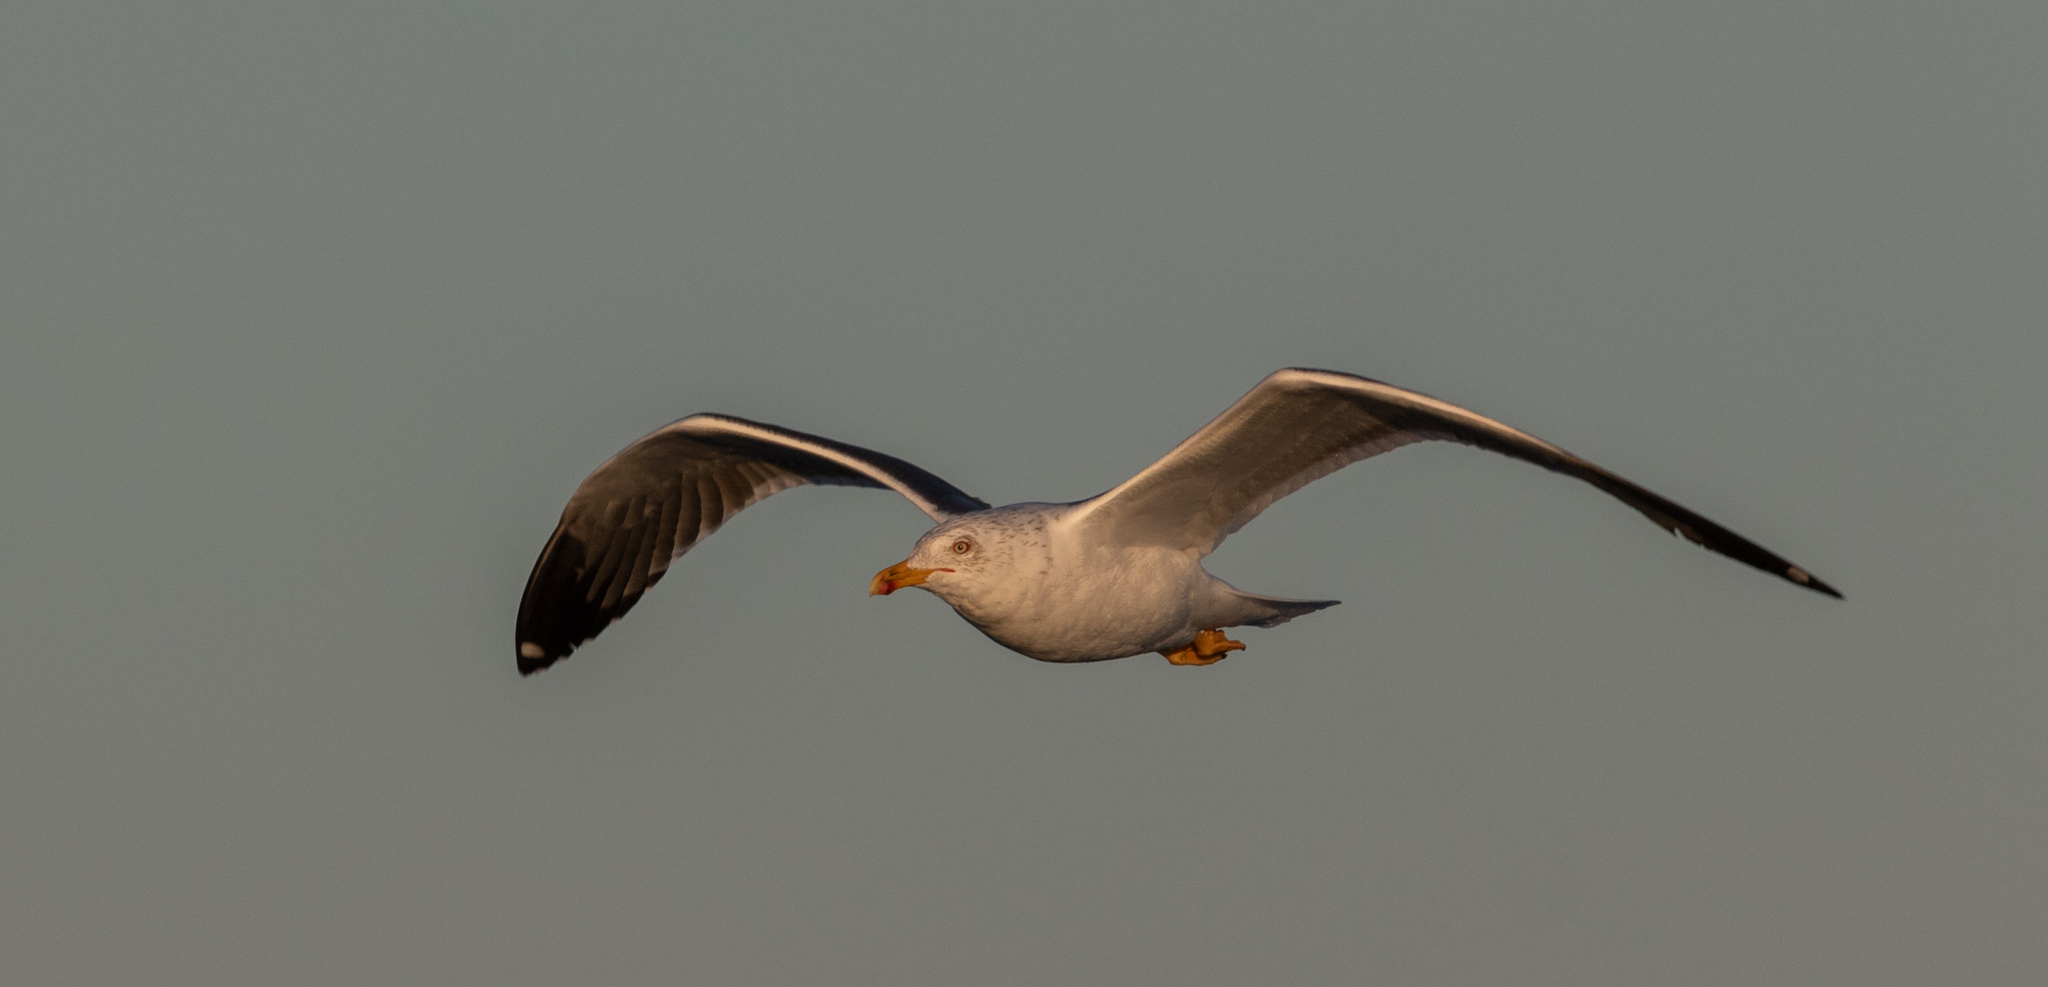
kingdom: Animalia
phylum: Chordata
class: Aves
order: Charadriiformes
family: Laridae
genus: Larus
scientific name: Larus fuscus
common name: Lesser black-backed gull
